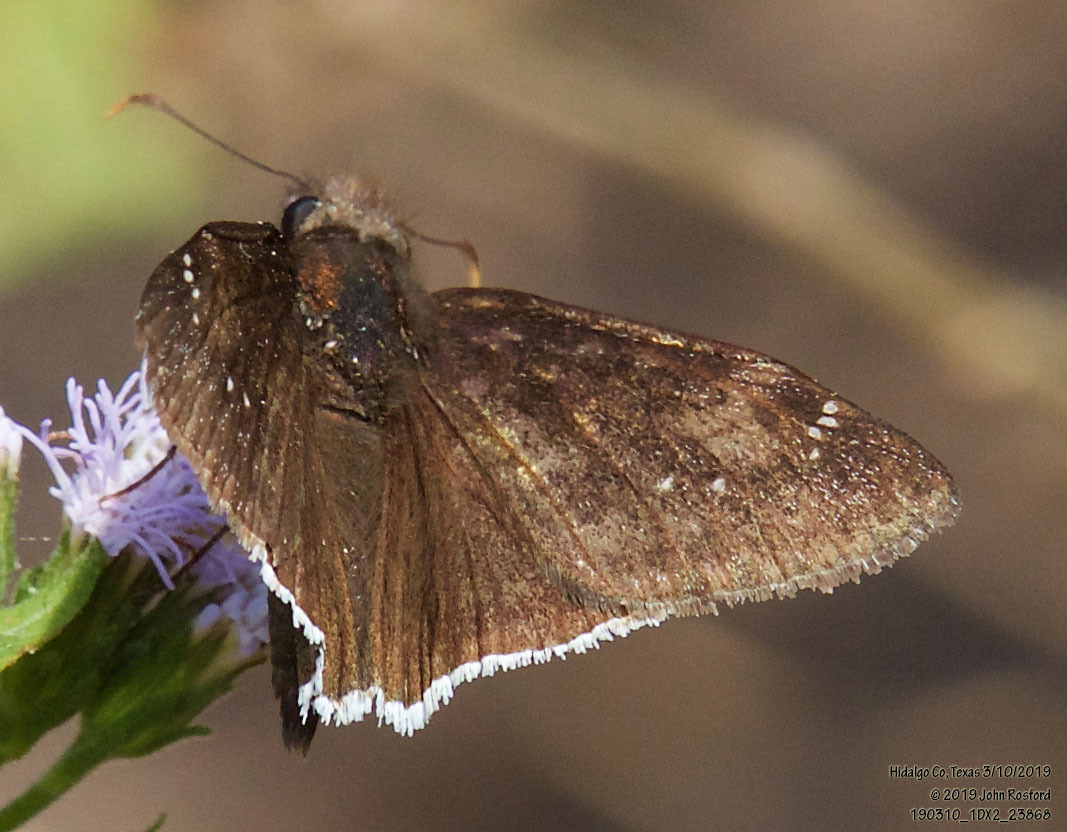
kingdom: Animalia
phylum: Arthropoda
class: Insecta
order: Lepidoptera
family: Hesperiidae
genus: Erynnis
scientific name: Erynnis funeralis
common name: Funereal duskywing
